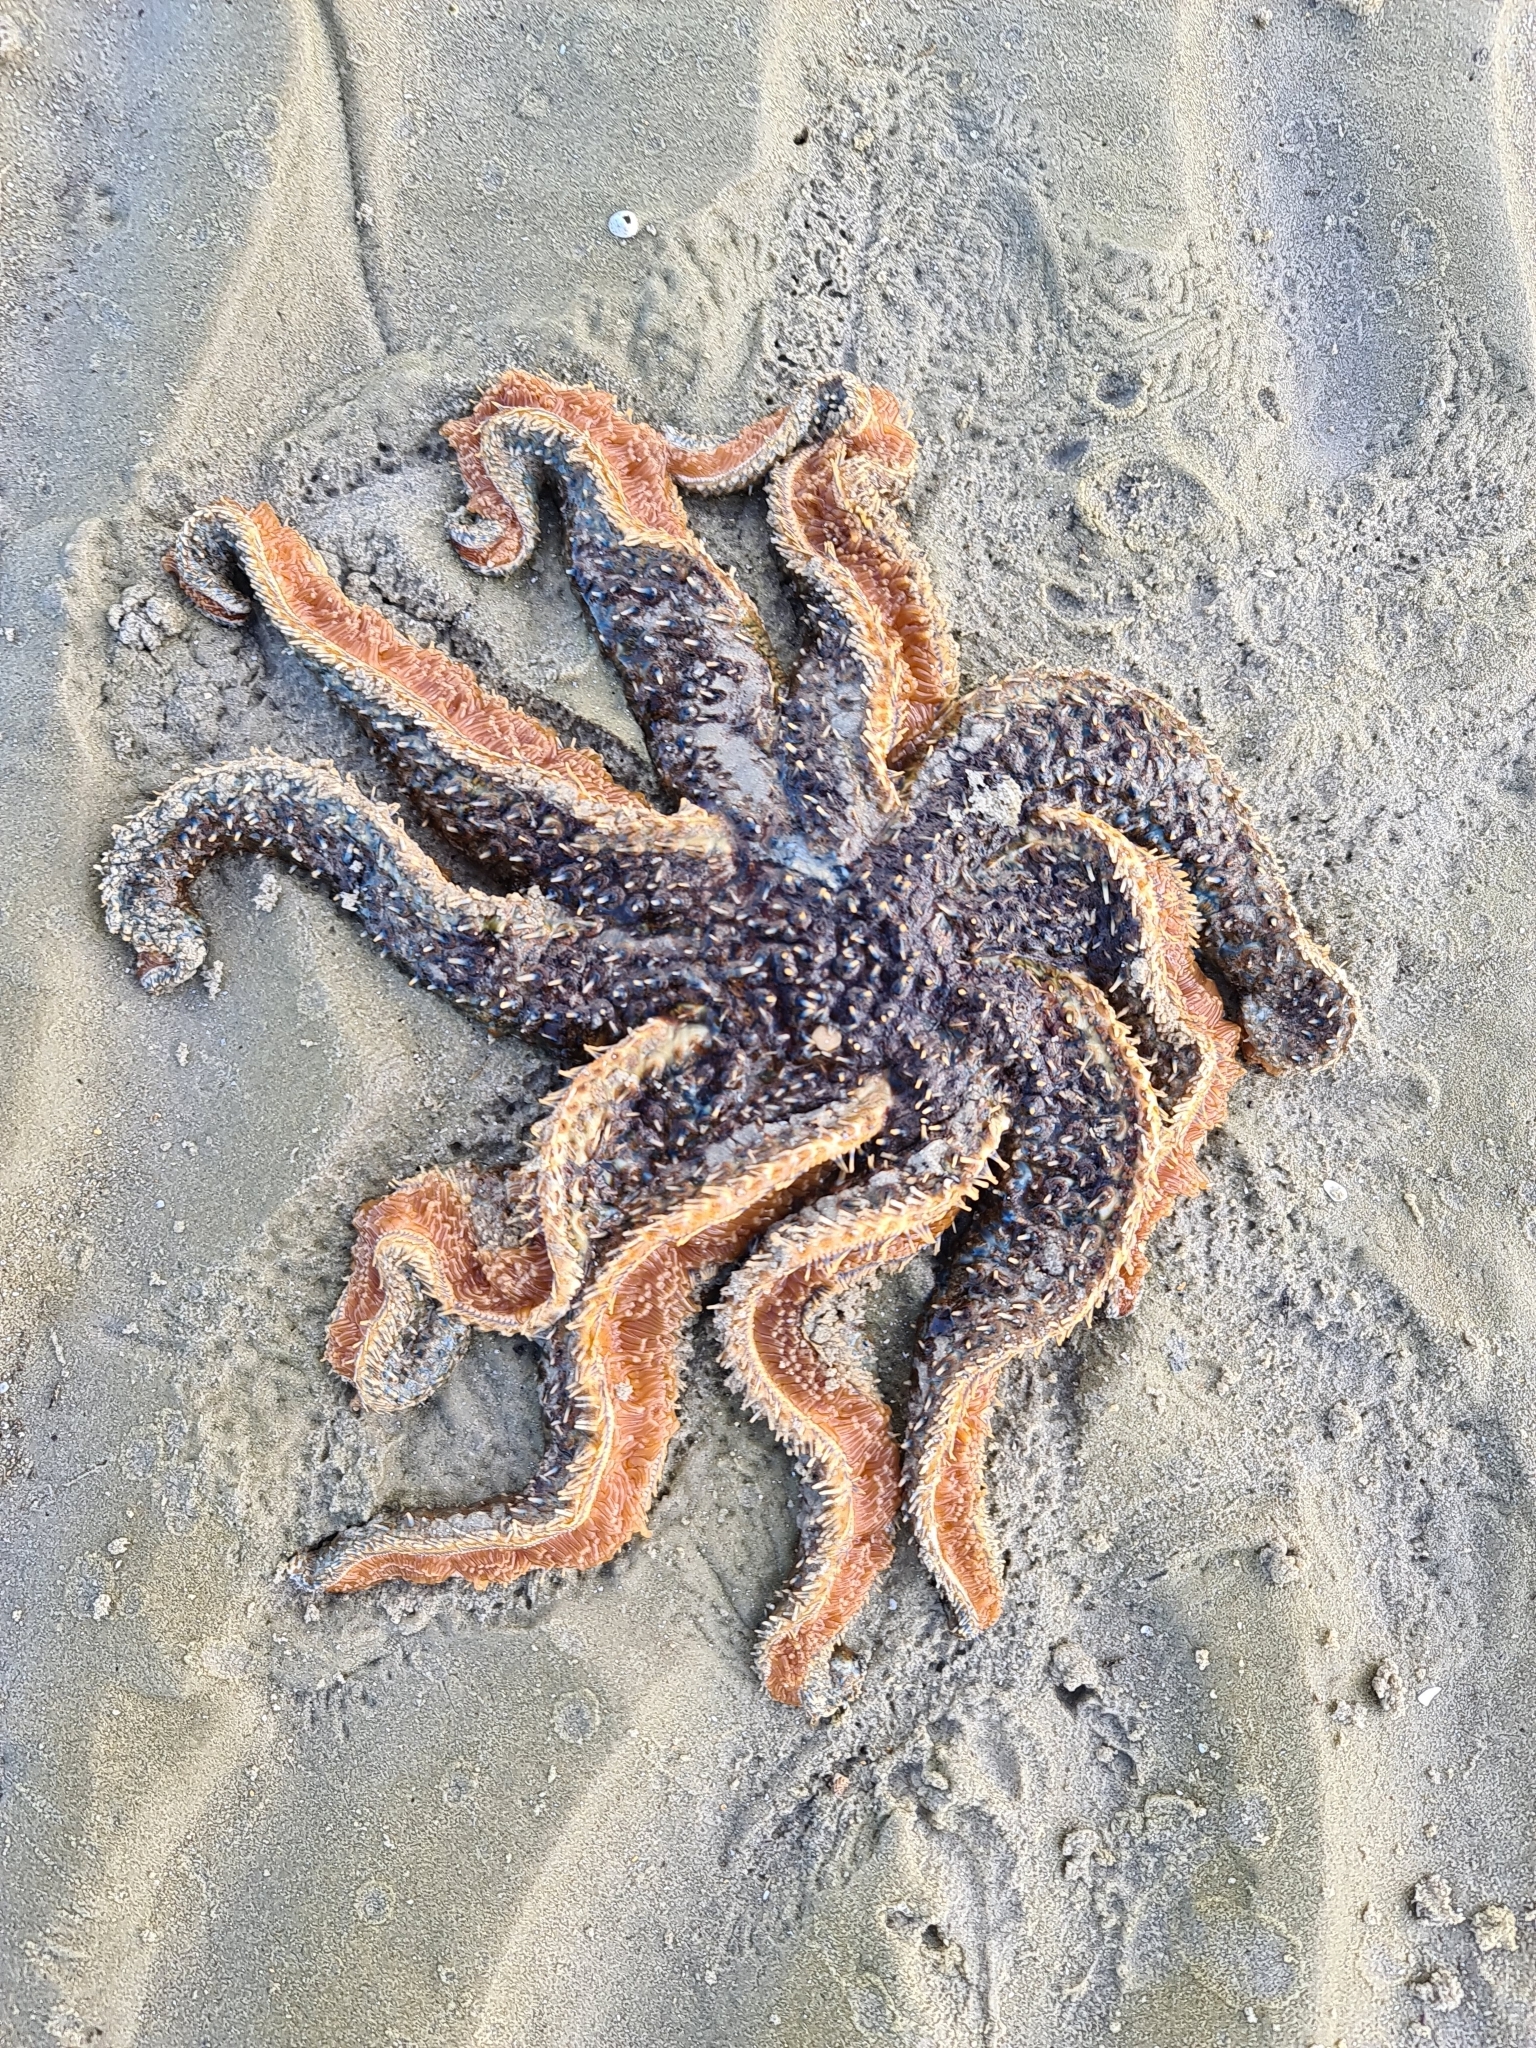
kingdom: Animalia
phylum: Echinodermata
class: Asteroidea
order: Forcipulatida
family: Asteriidae
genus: Coscinasterias
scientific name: Coscinasterias muricata
